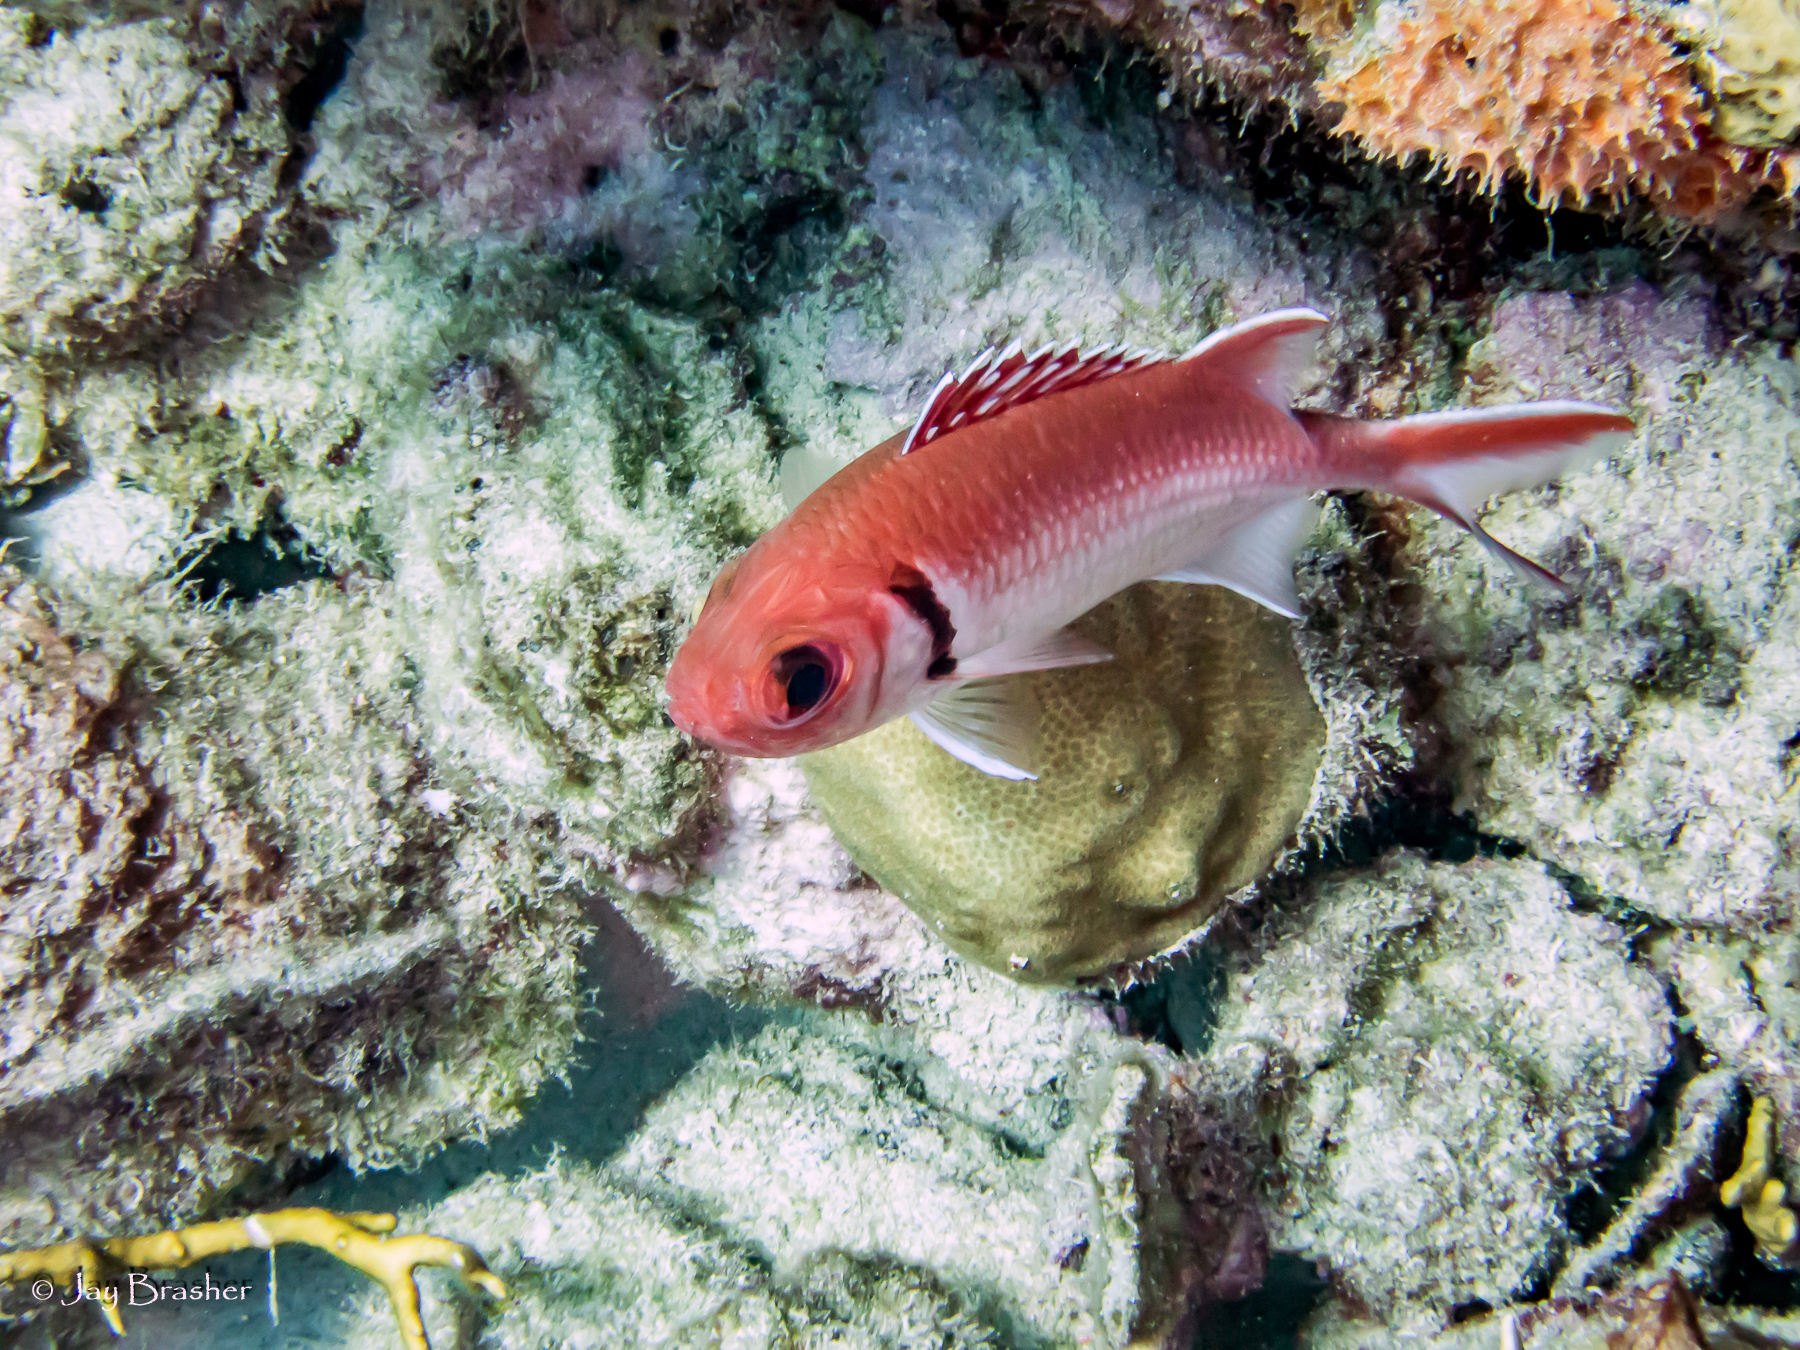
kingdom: Animalia
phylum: Porifera
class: Demospongiae
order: Scopalinida
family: Scopalinidae
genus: Scopalina
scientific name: Scopalina ruetzleri
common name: Orange lumpy encrusting sponge
